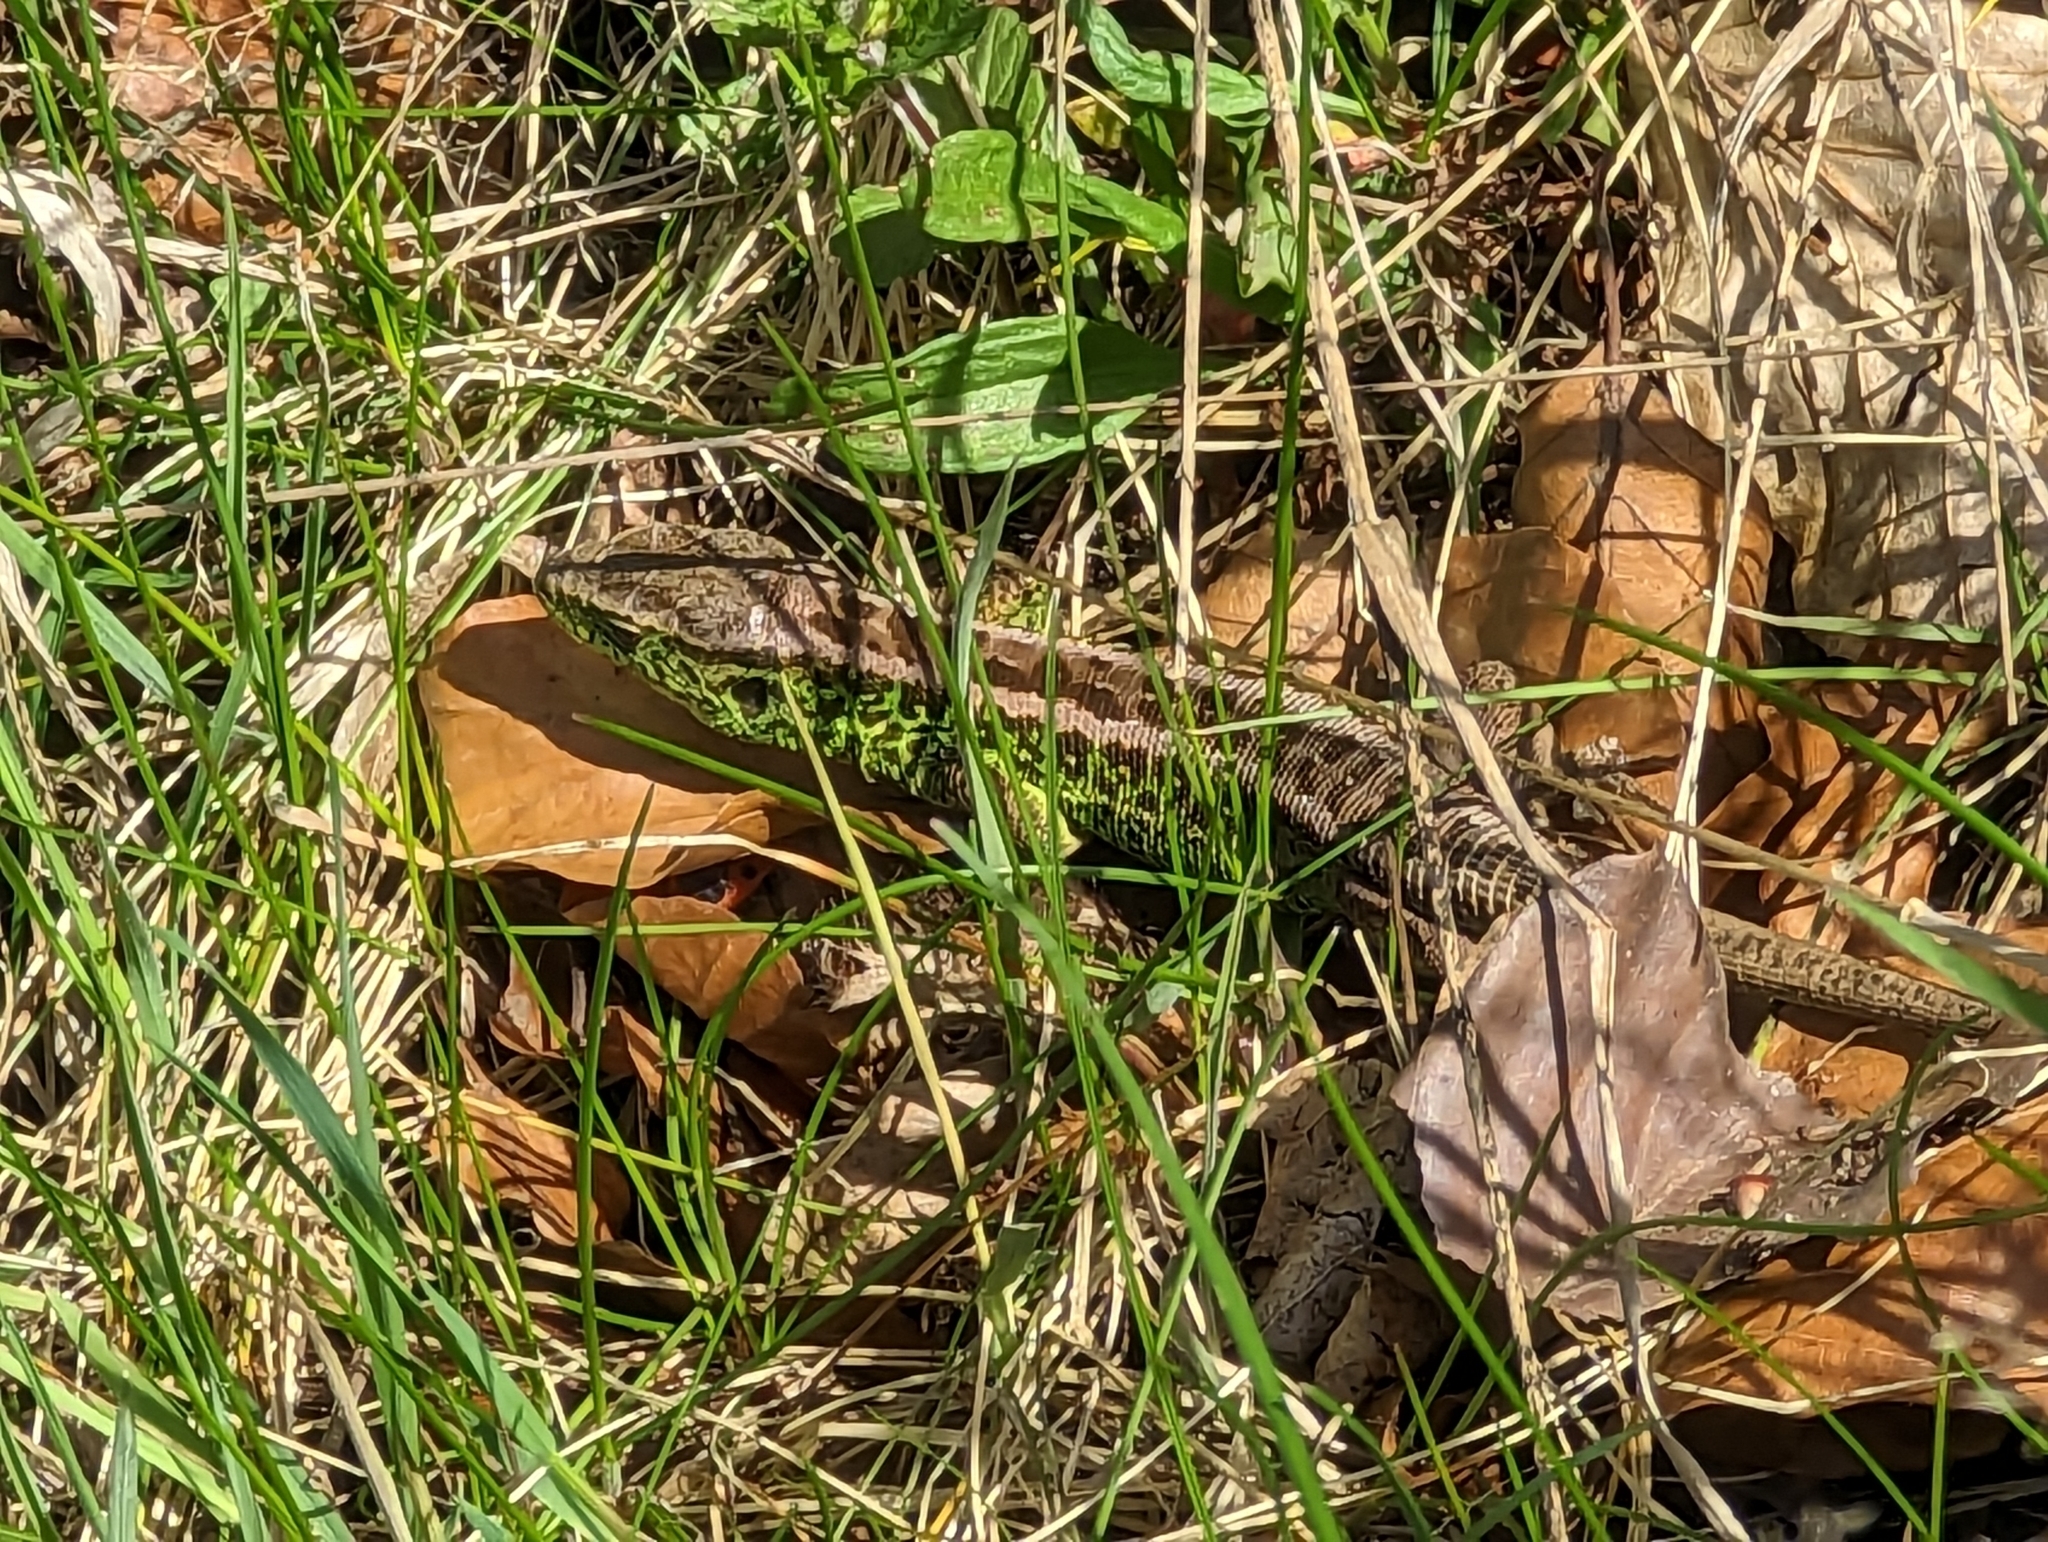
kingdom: Animalia
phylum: Chordata
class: Squamata
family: Lacertidae
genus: Lacerta
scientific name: Lacerta agilis
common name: Sand lizard
